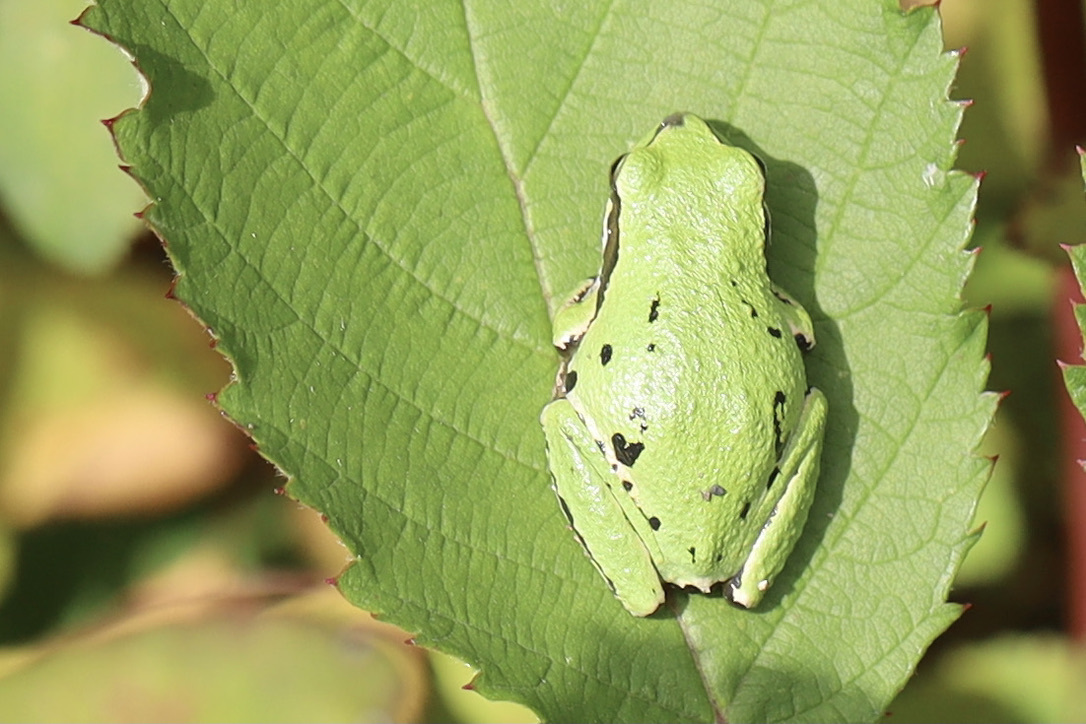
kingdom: Animalia
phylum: Chordata
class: Amphibia
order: Anura
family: Hylidae
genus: Pseudacris
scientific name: Pseudacris regilla
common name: Pacific chorus frog
